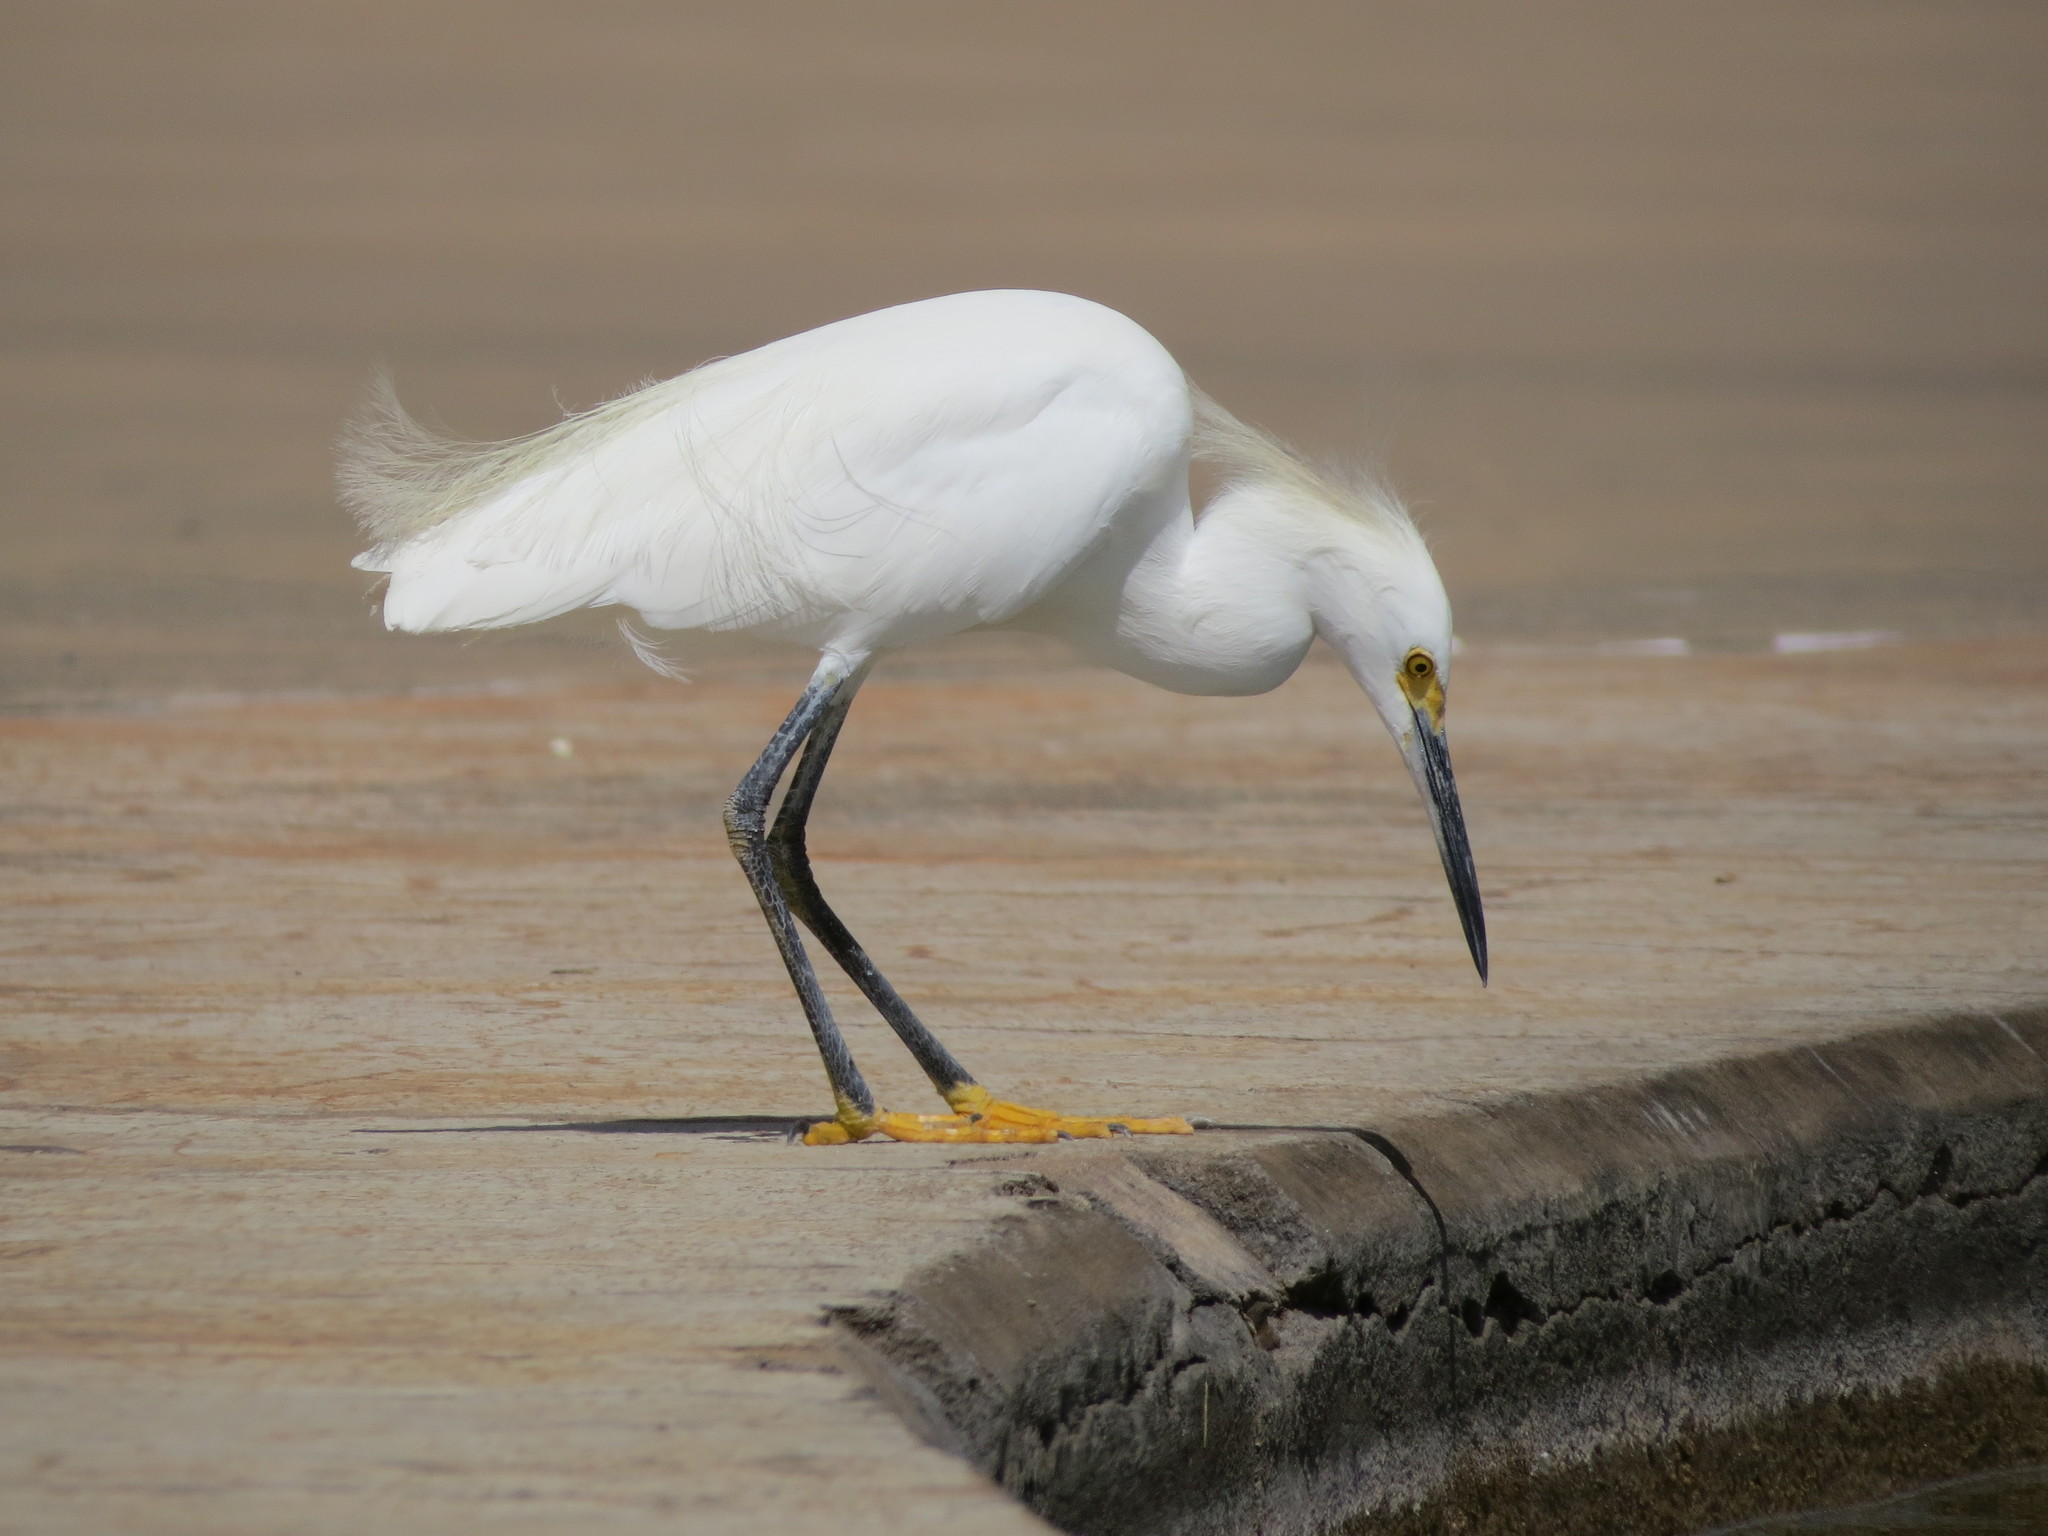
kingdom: Animalia
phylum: Chordata
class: Aves
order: Pelecaniformes
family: Ardeidae
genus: Egretta
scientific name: Egretta thula
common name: Snowy egret
